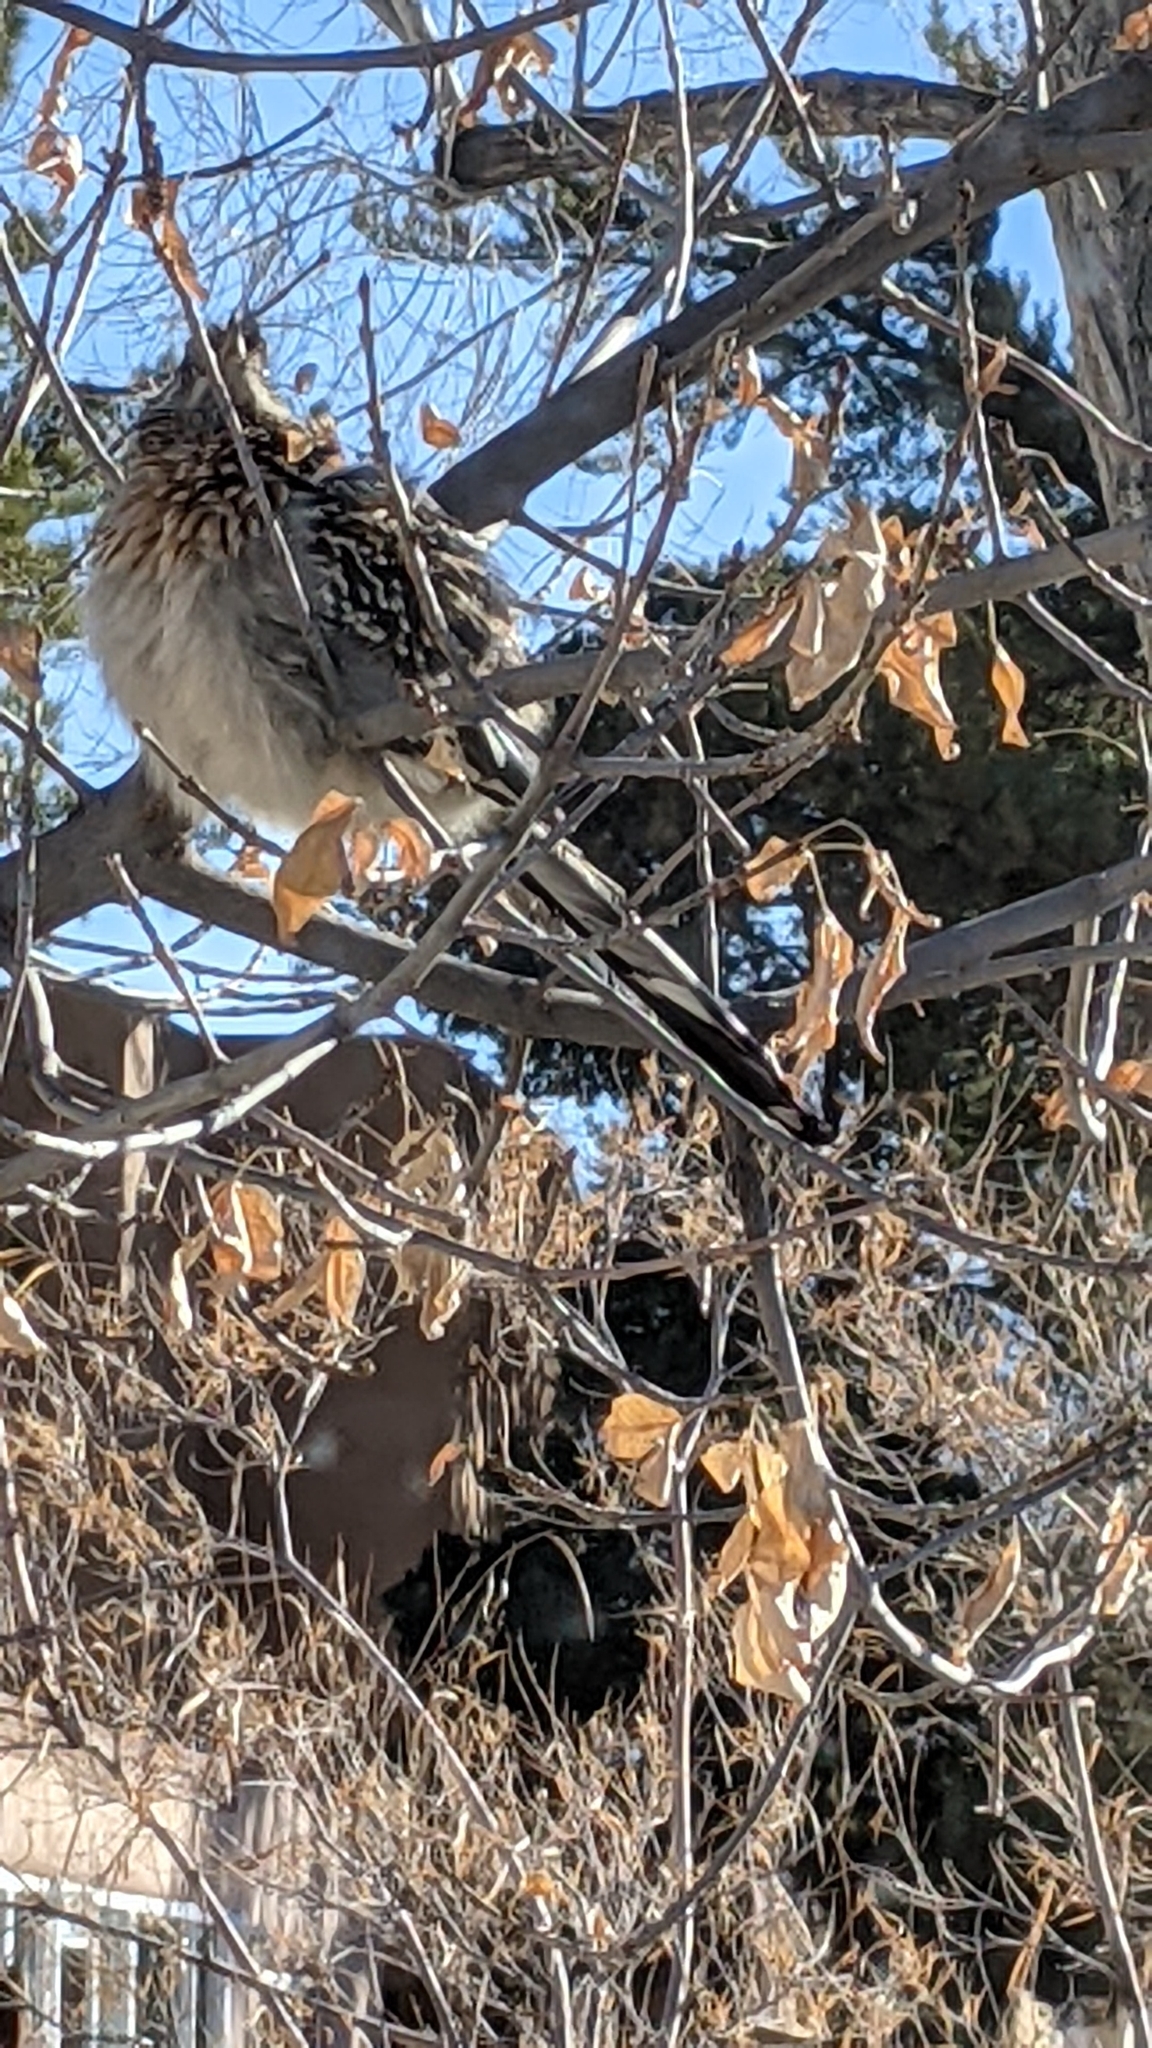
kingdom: Animalia
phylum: Chordata
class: Aves
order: Cuculiformes
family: Cuculidae
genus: Geococcyx
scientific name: Geococcyx californianus
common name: Greater roadrunner
